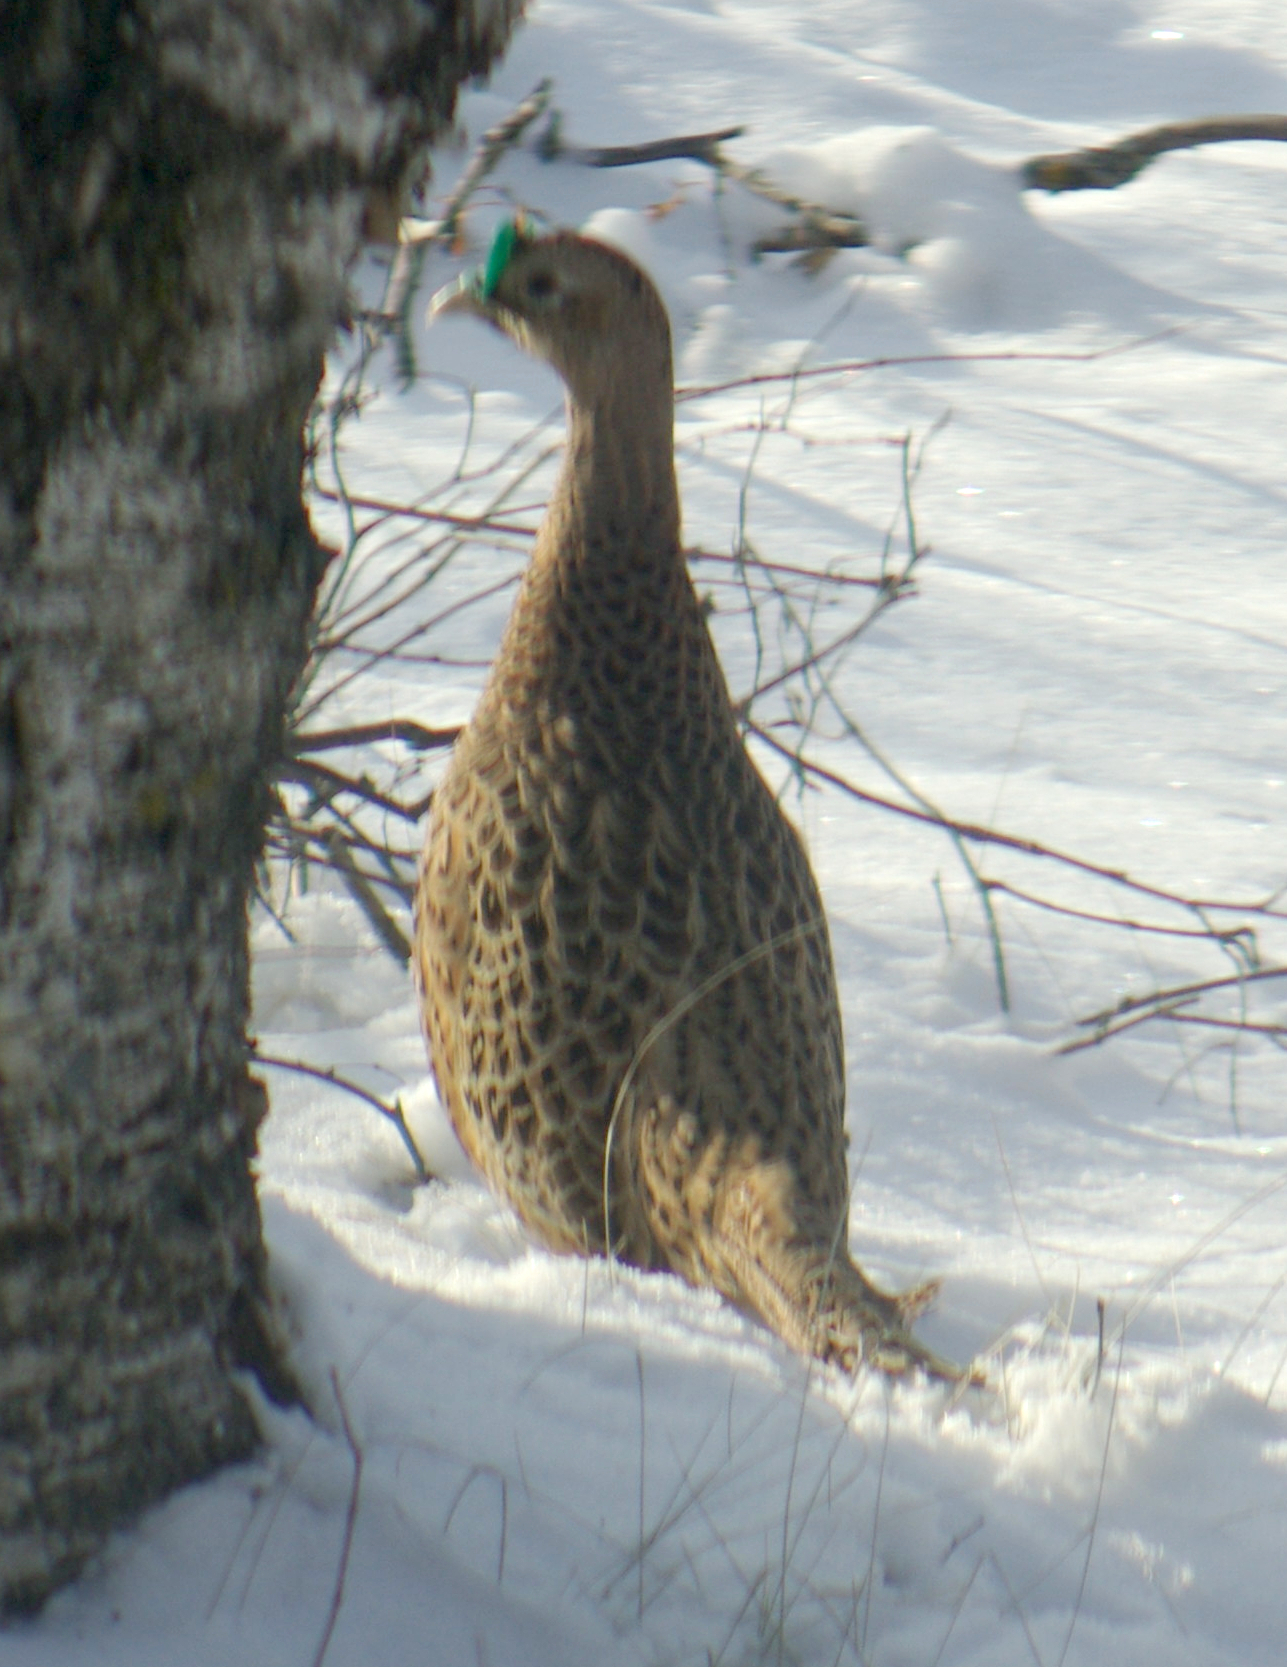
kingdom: Animalia
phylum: Chordata
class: Aves
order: Galliformes
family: Phasianidae
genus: Phasianus
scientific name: Phasianus colchicus
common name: Common pheasant
